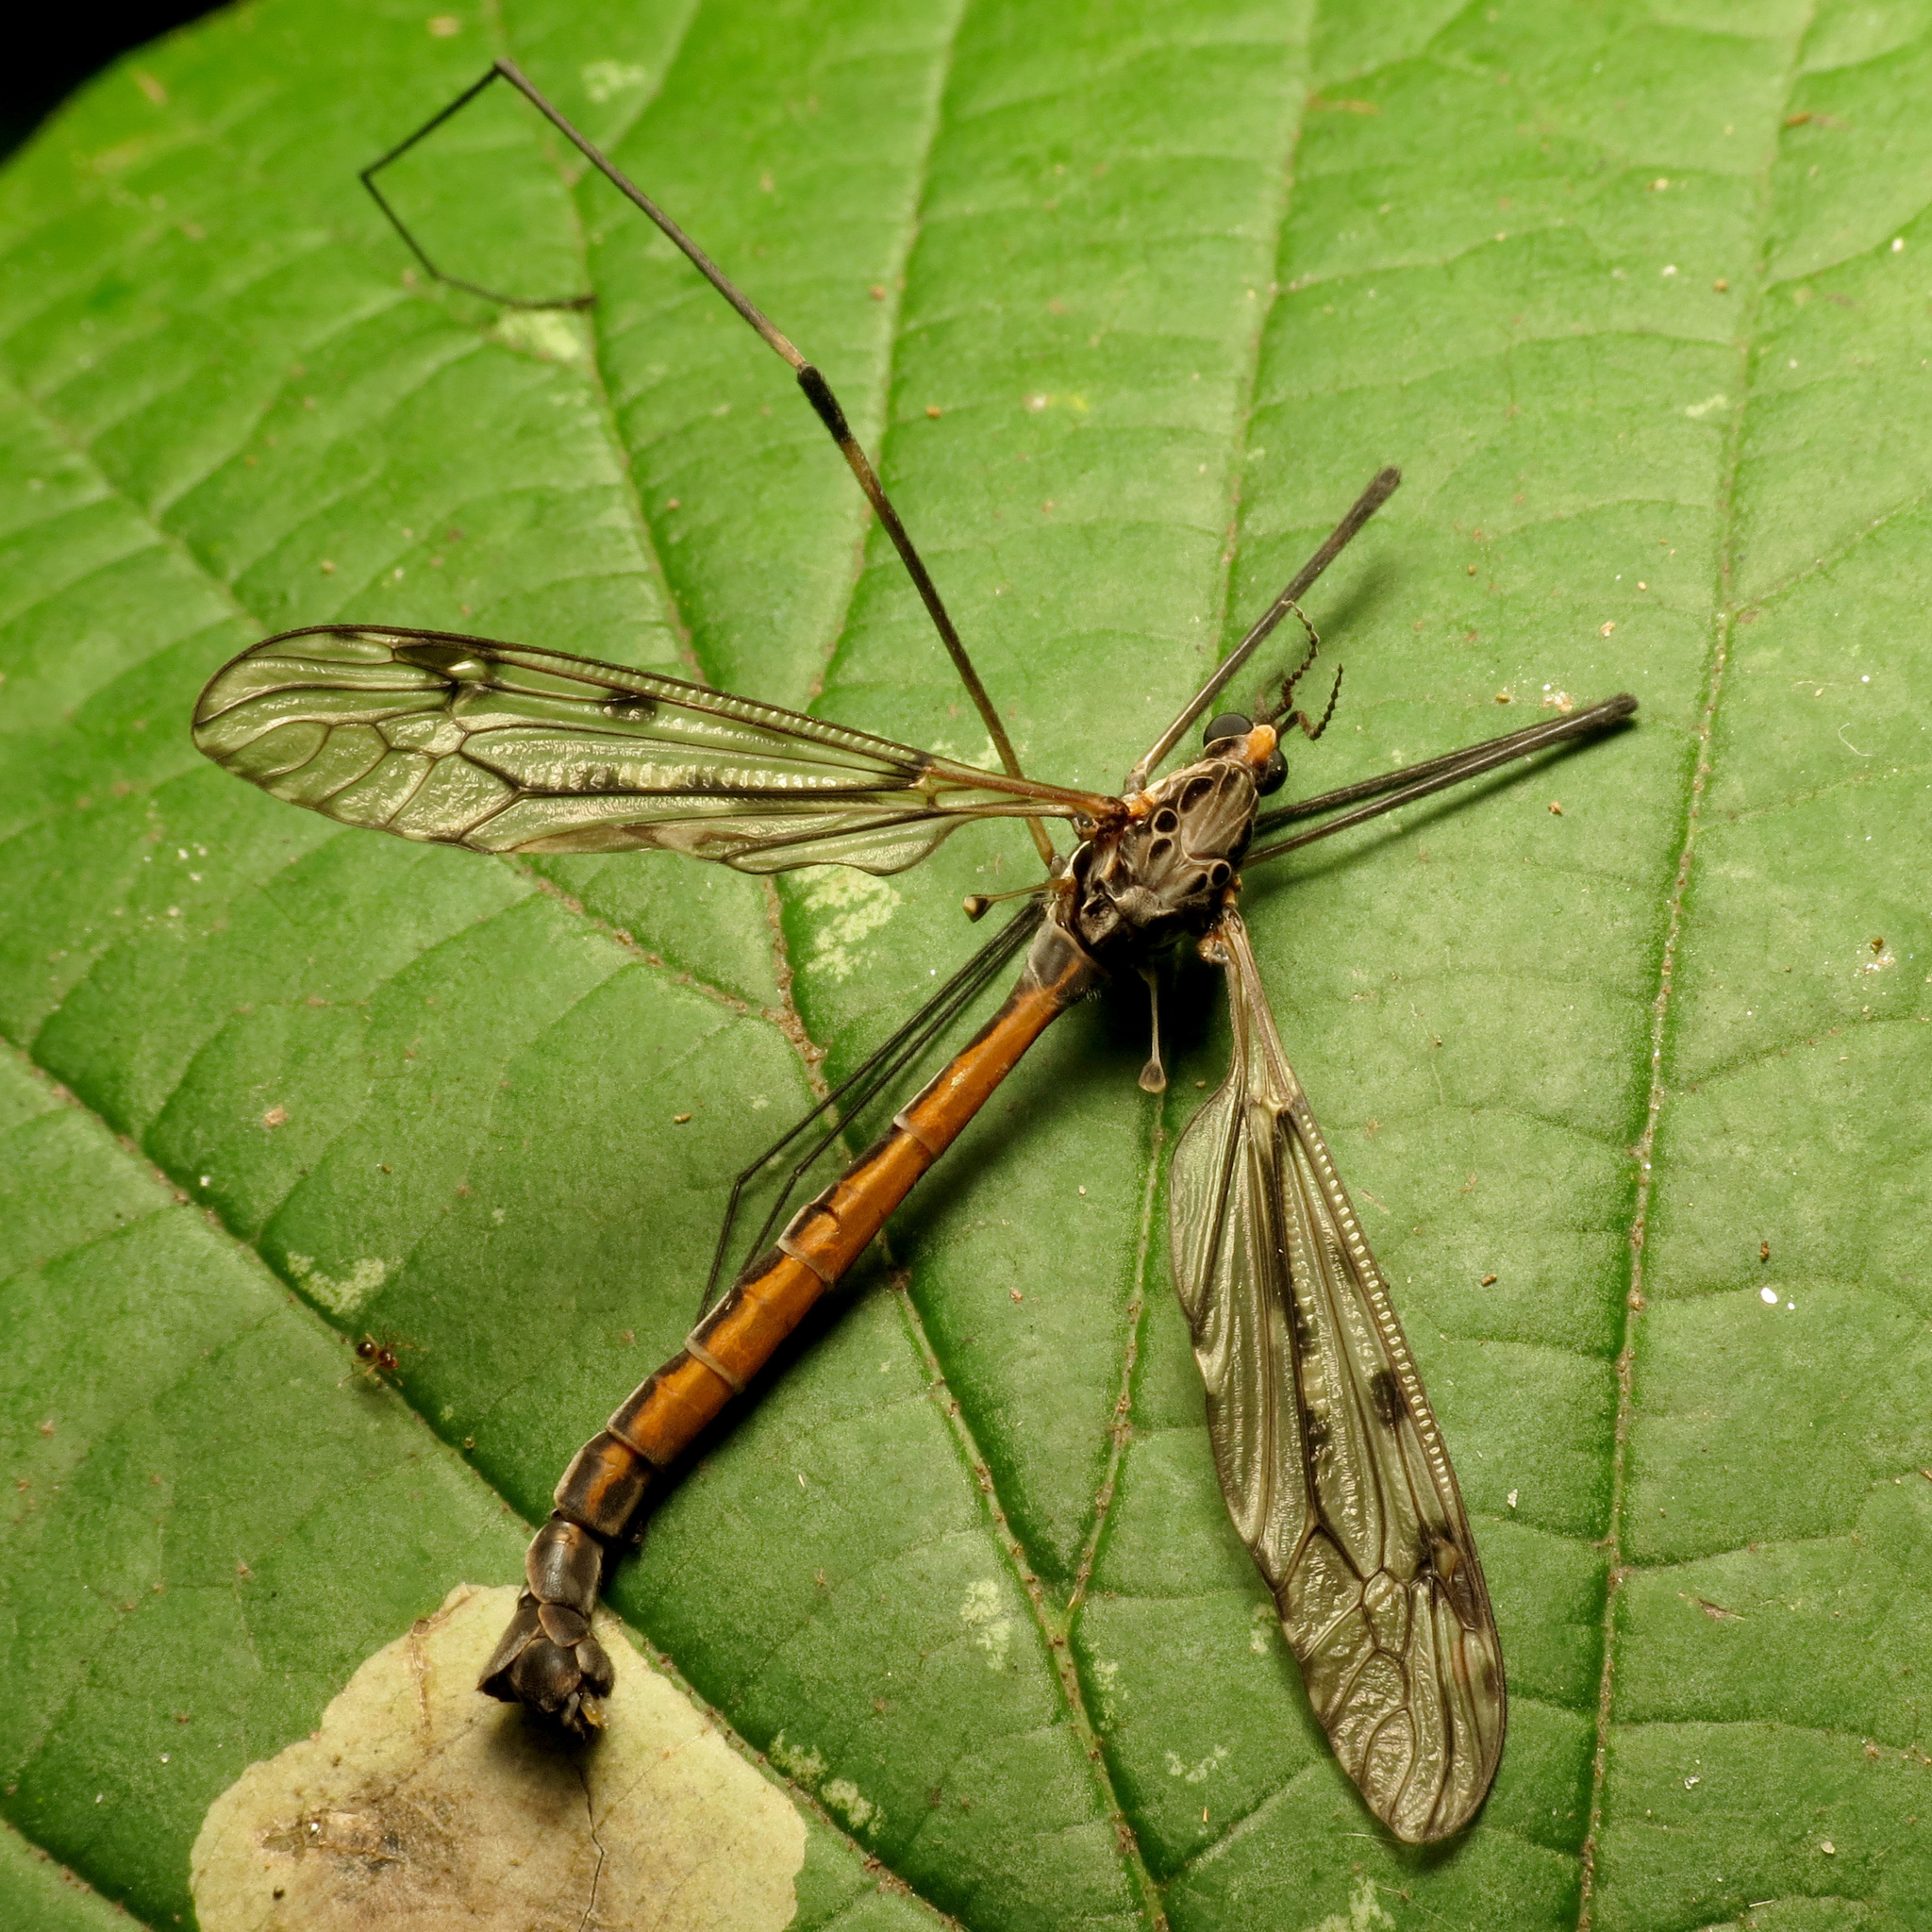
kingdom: Animalia
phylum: Arthropoda
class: Insecta
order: Diptera
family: Tipulidae
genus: Tipula
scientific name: Tipula abdominalis
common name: Giant crane fly
